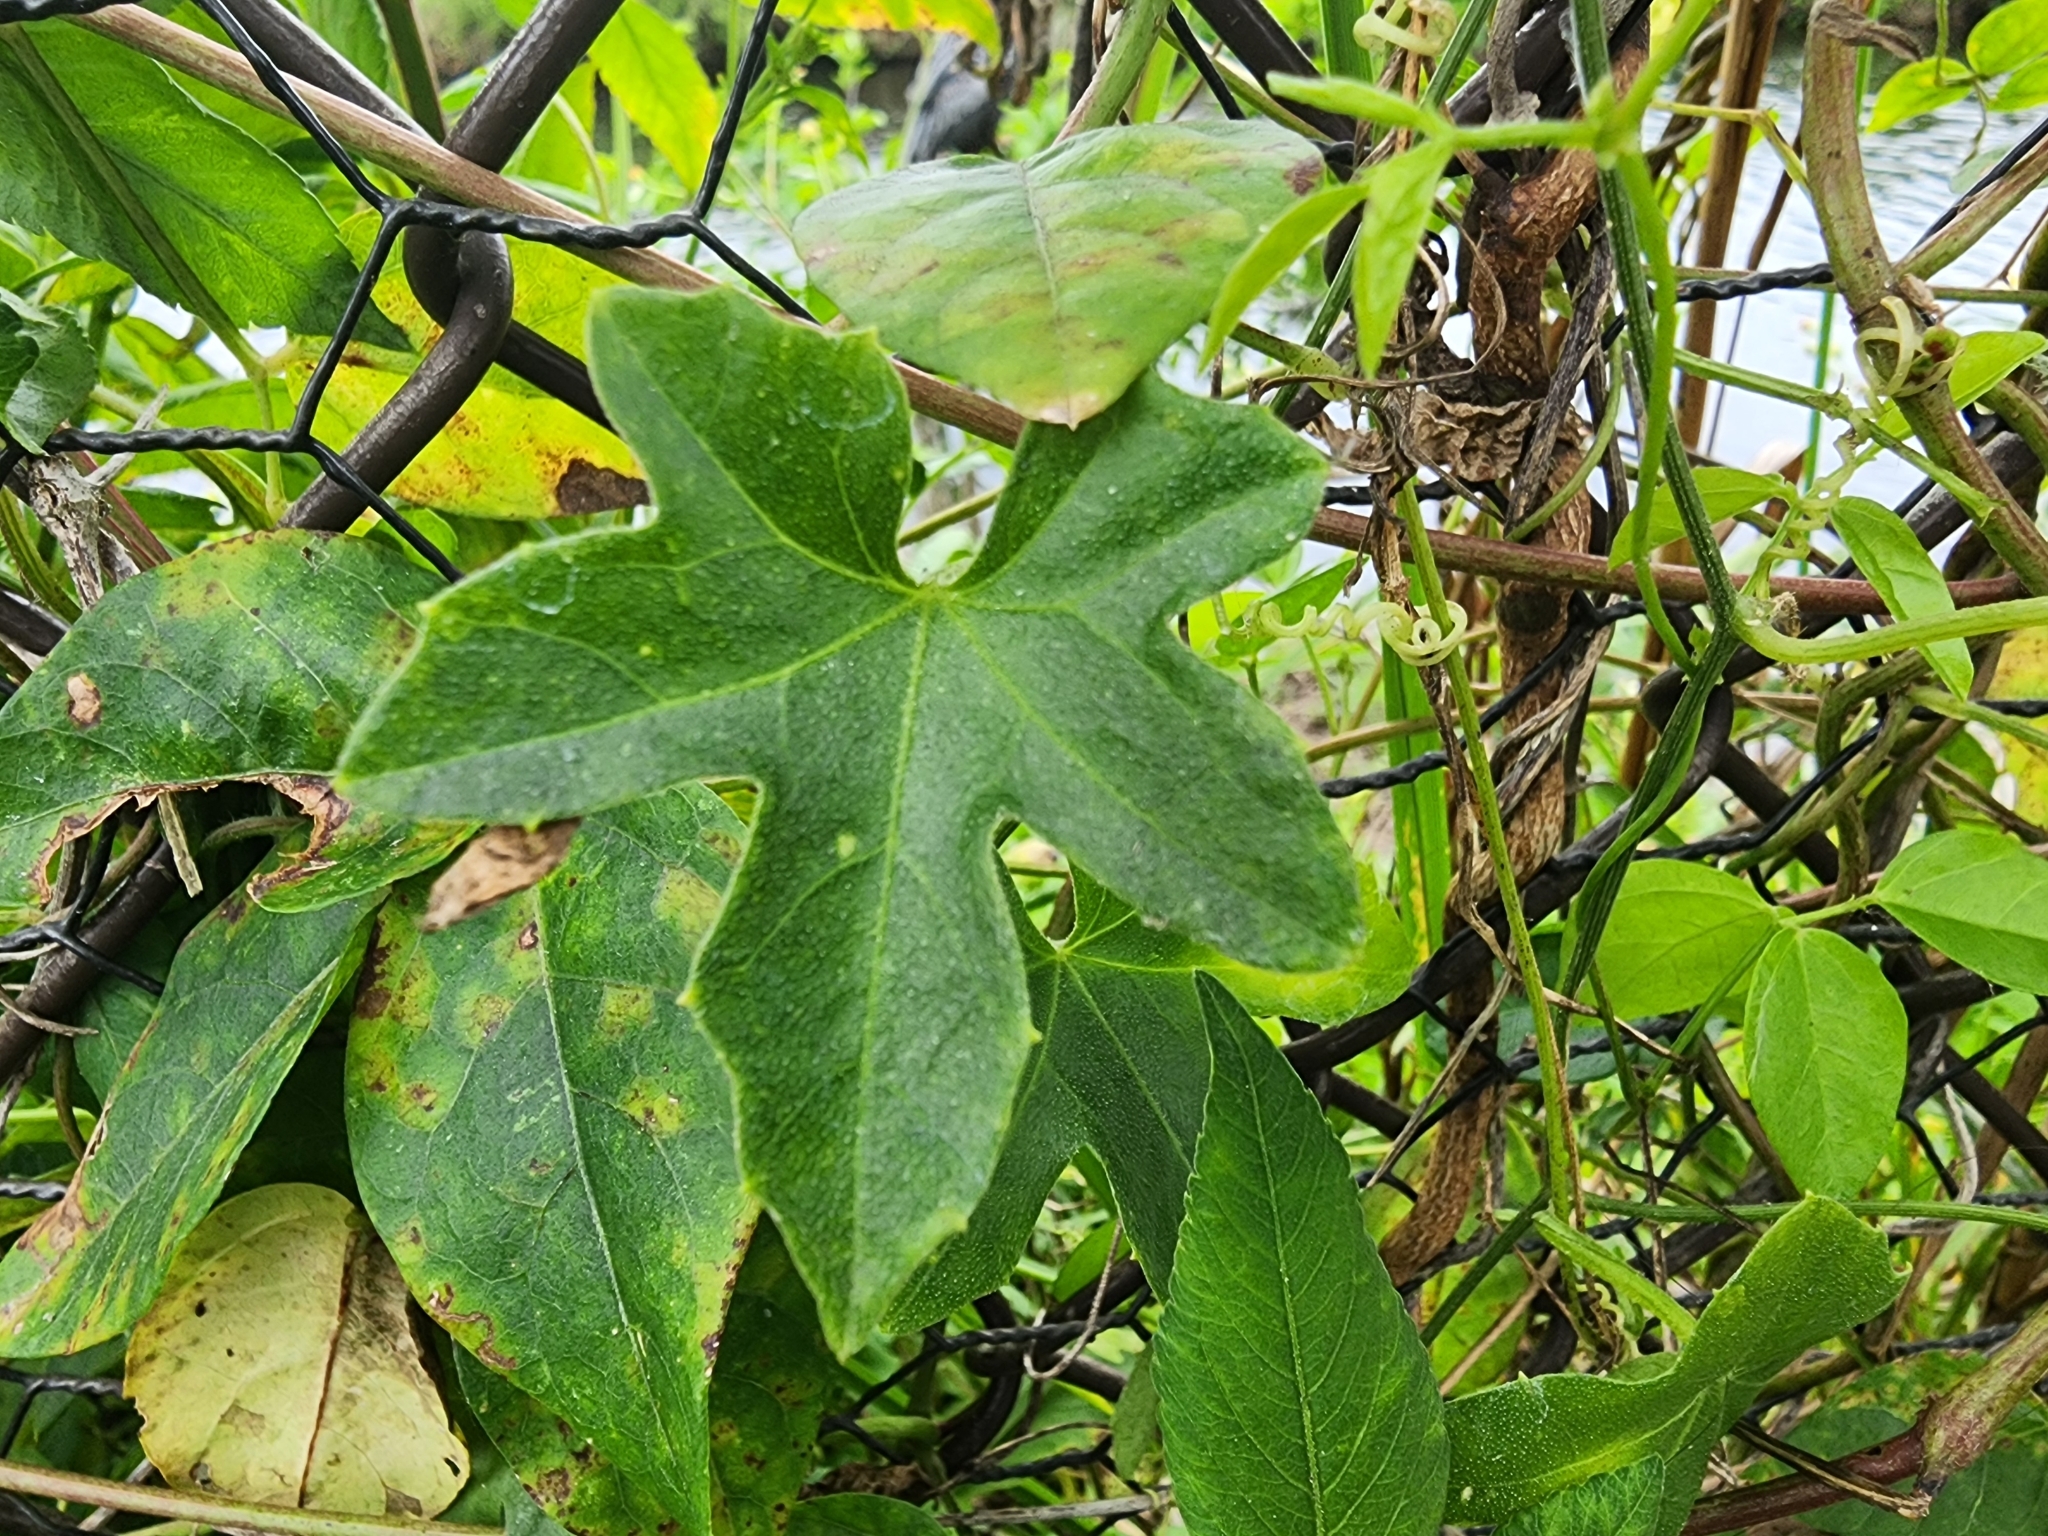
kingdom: Plantae
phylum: Tracheophyta
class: Magnoliopsida
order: Cucurbitales
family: Cucurbitaceae
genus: Melothria
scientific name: Melothria pendula
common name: Creeping-cucumber
